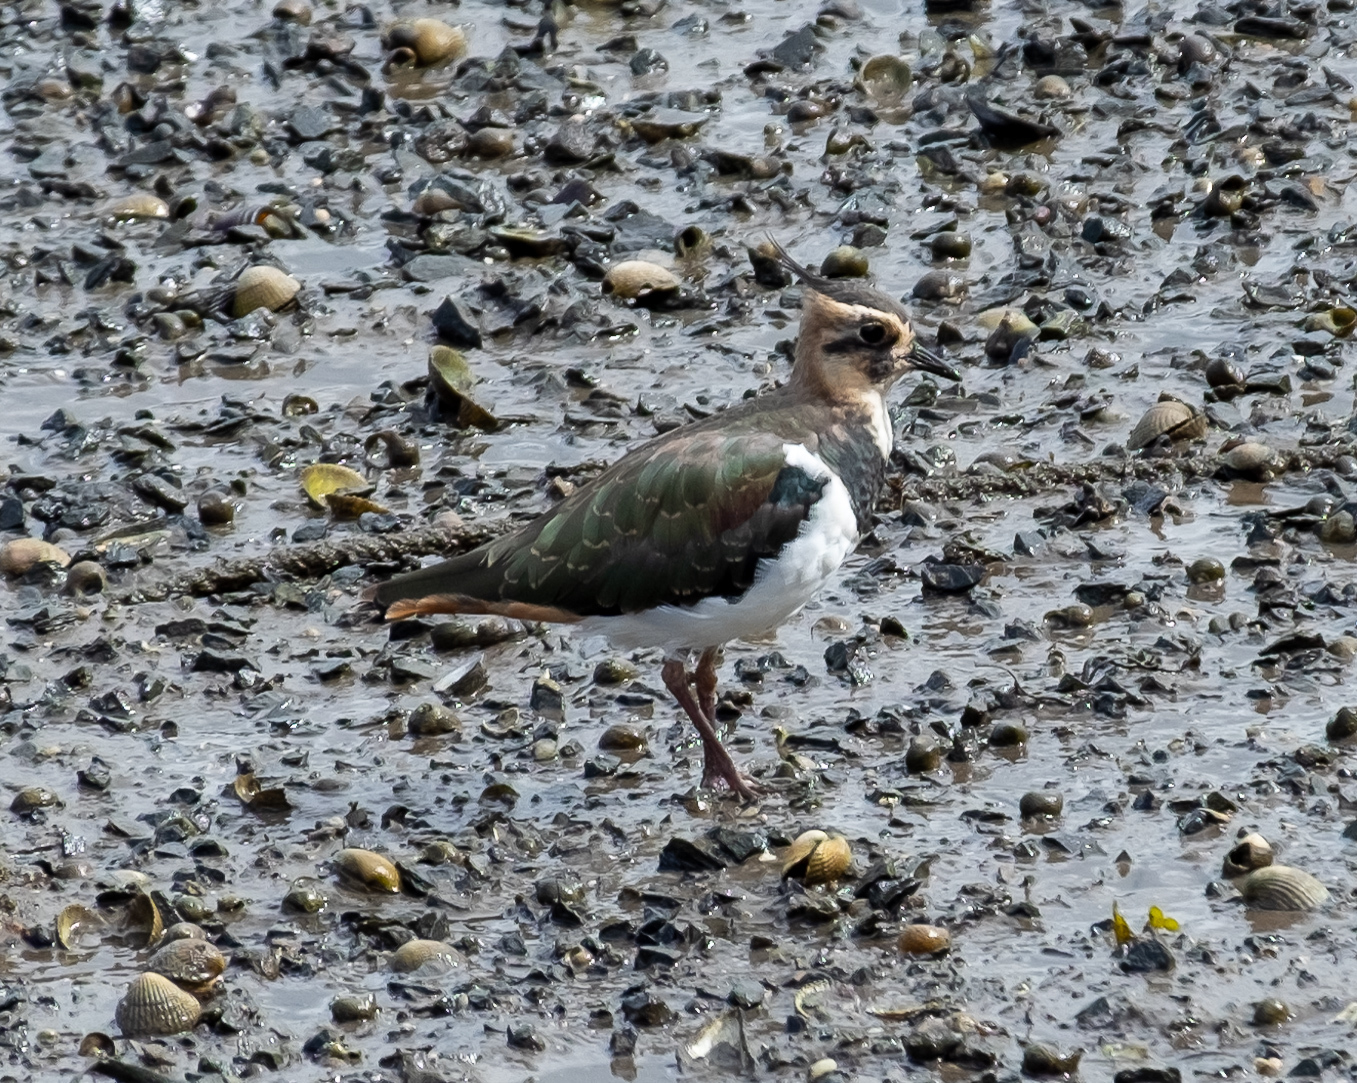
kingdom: Animalia
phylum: Chordata
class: Aves
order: Charadriiformes
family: Charadriidae
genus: Vanellus
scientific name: Vanellus vanellus
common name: Northern lapwing
